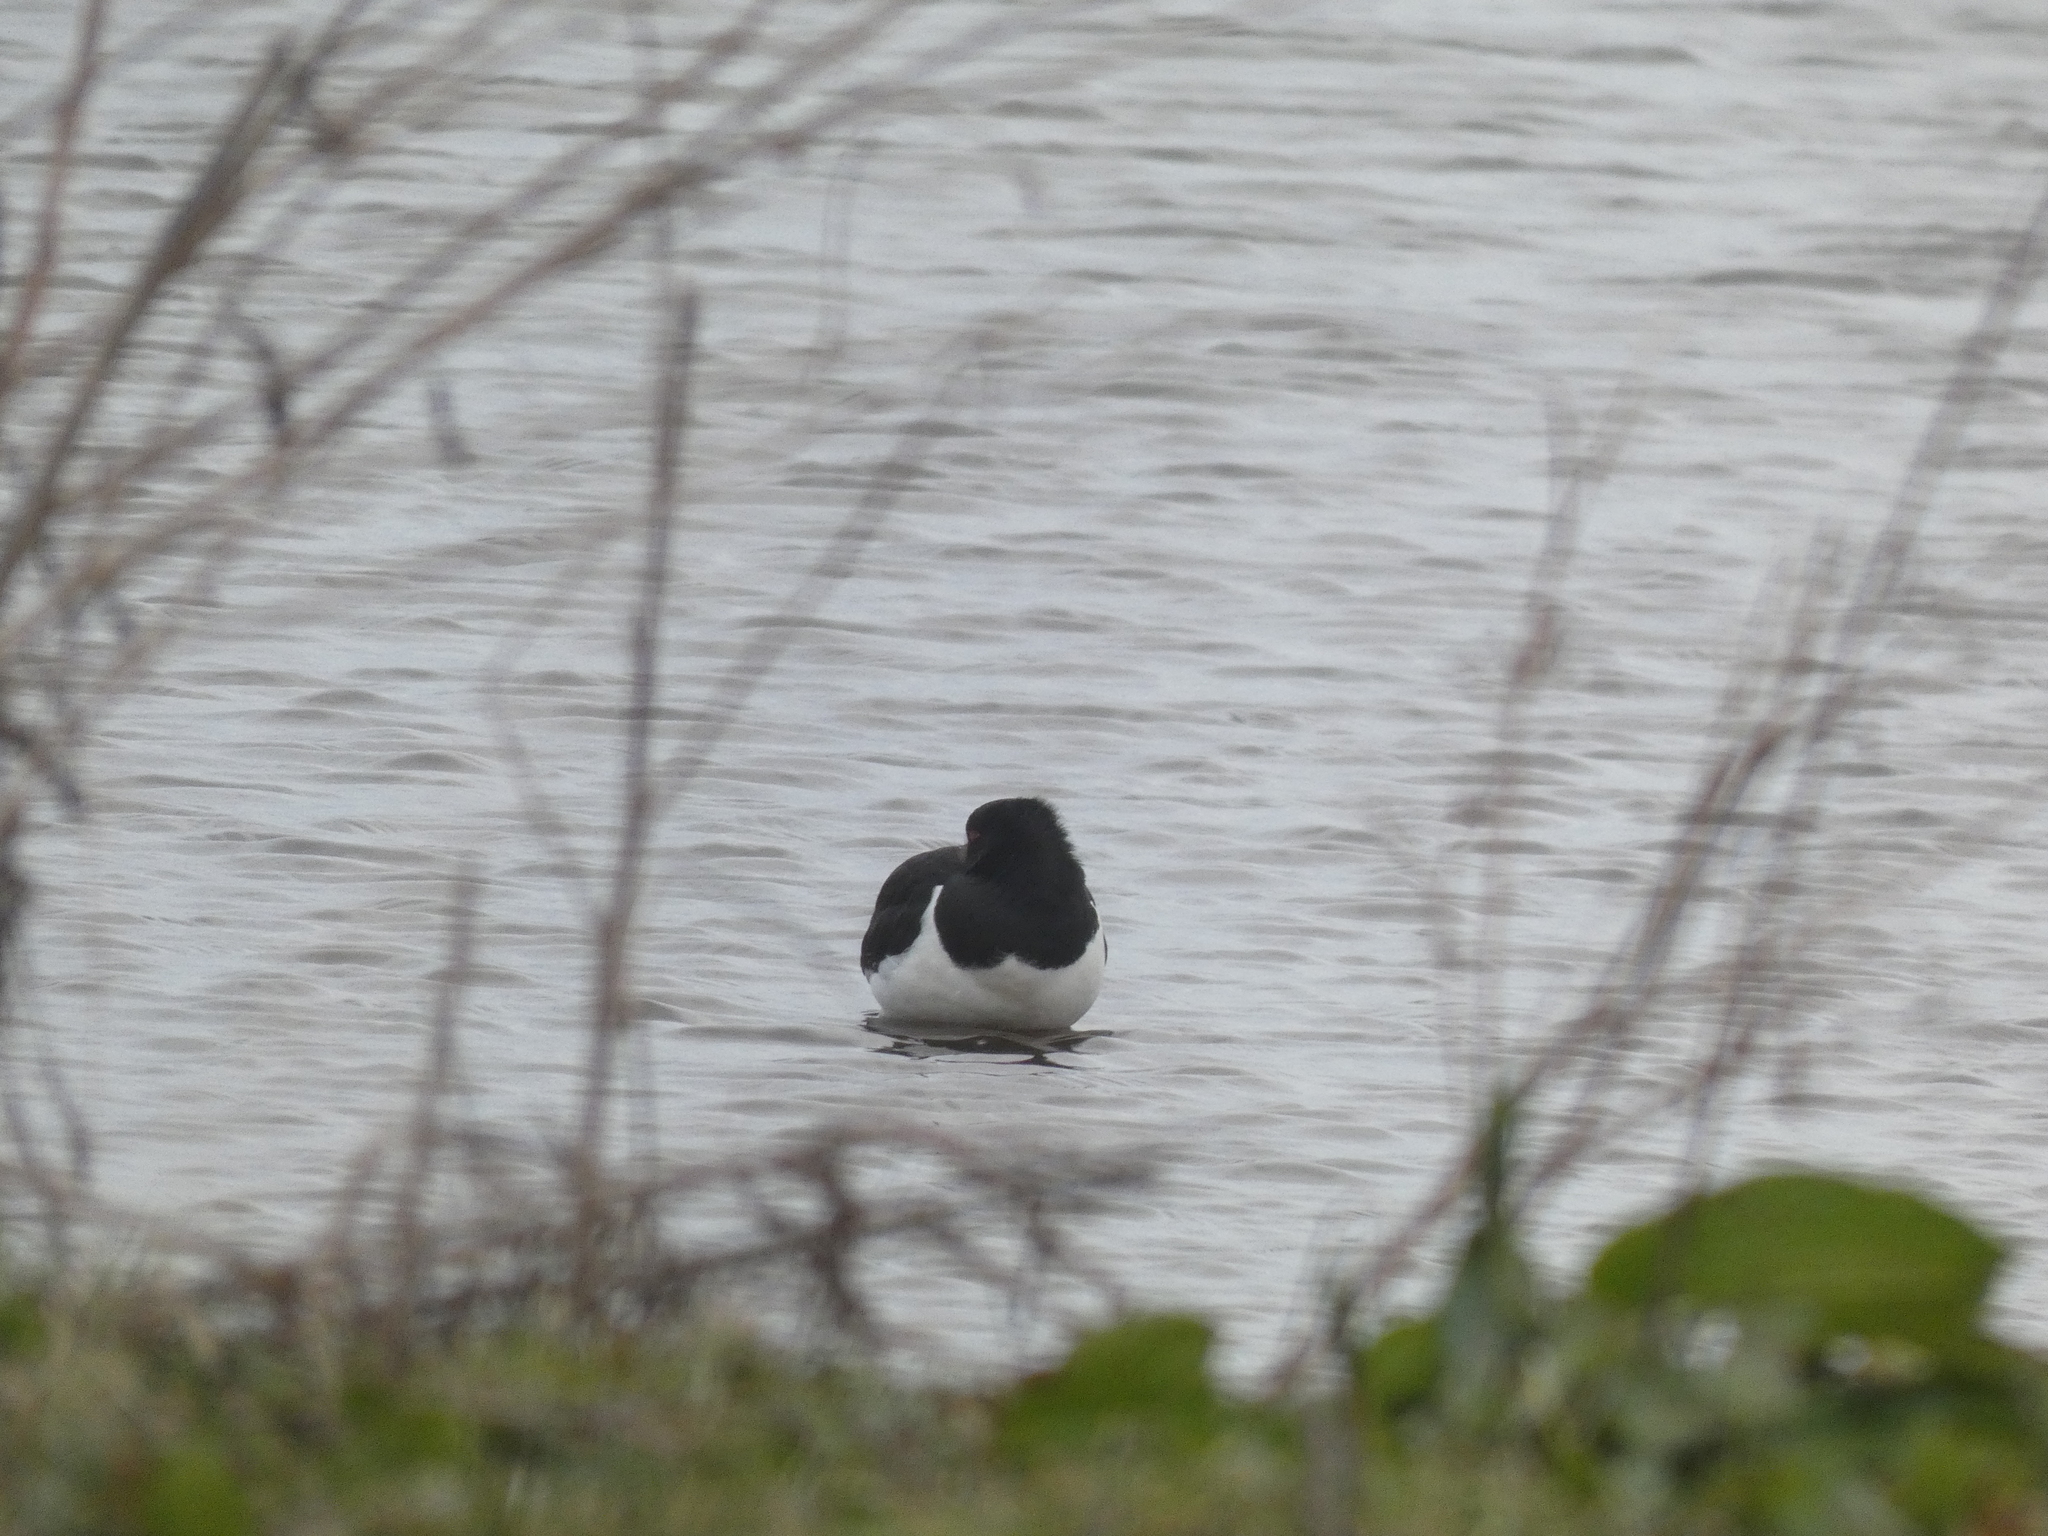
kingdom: Animalia
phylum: Chordata
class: Aves
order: Charadriiformes
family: Haematopodidae
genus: Haematopus
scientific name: Haematopus ostralegus
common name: Eurasian oystercatcher
